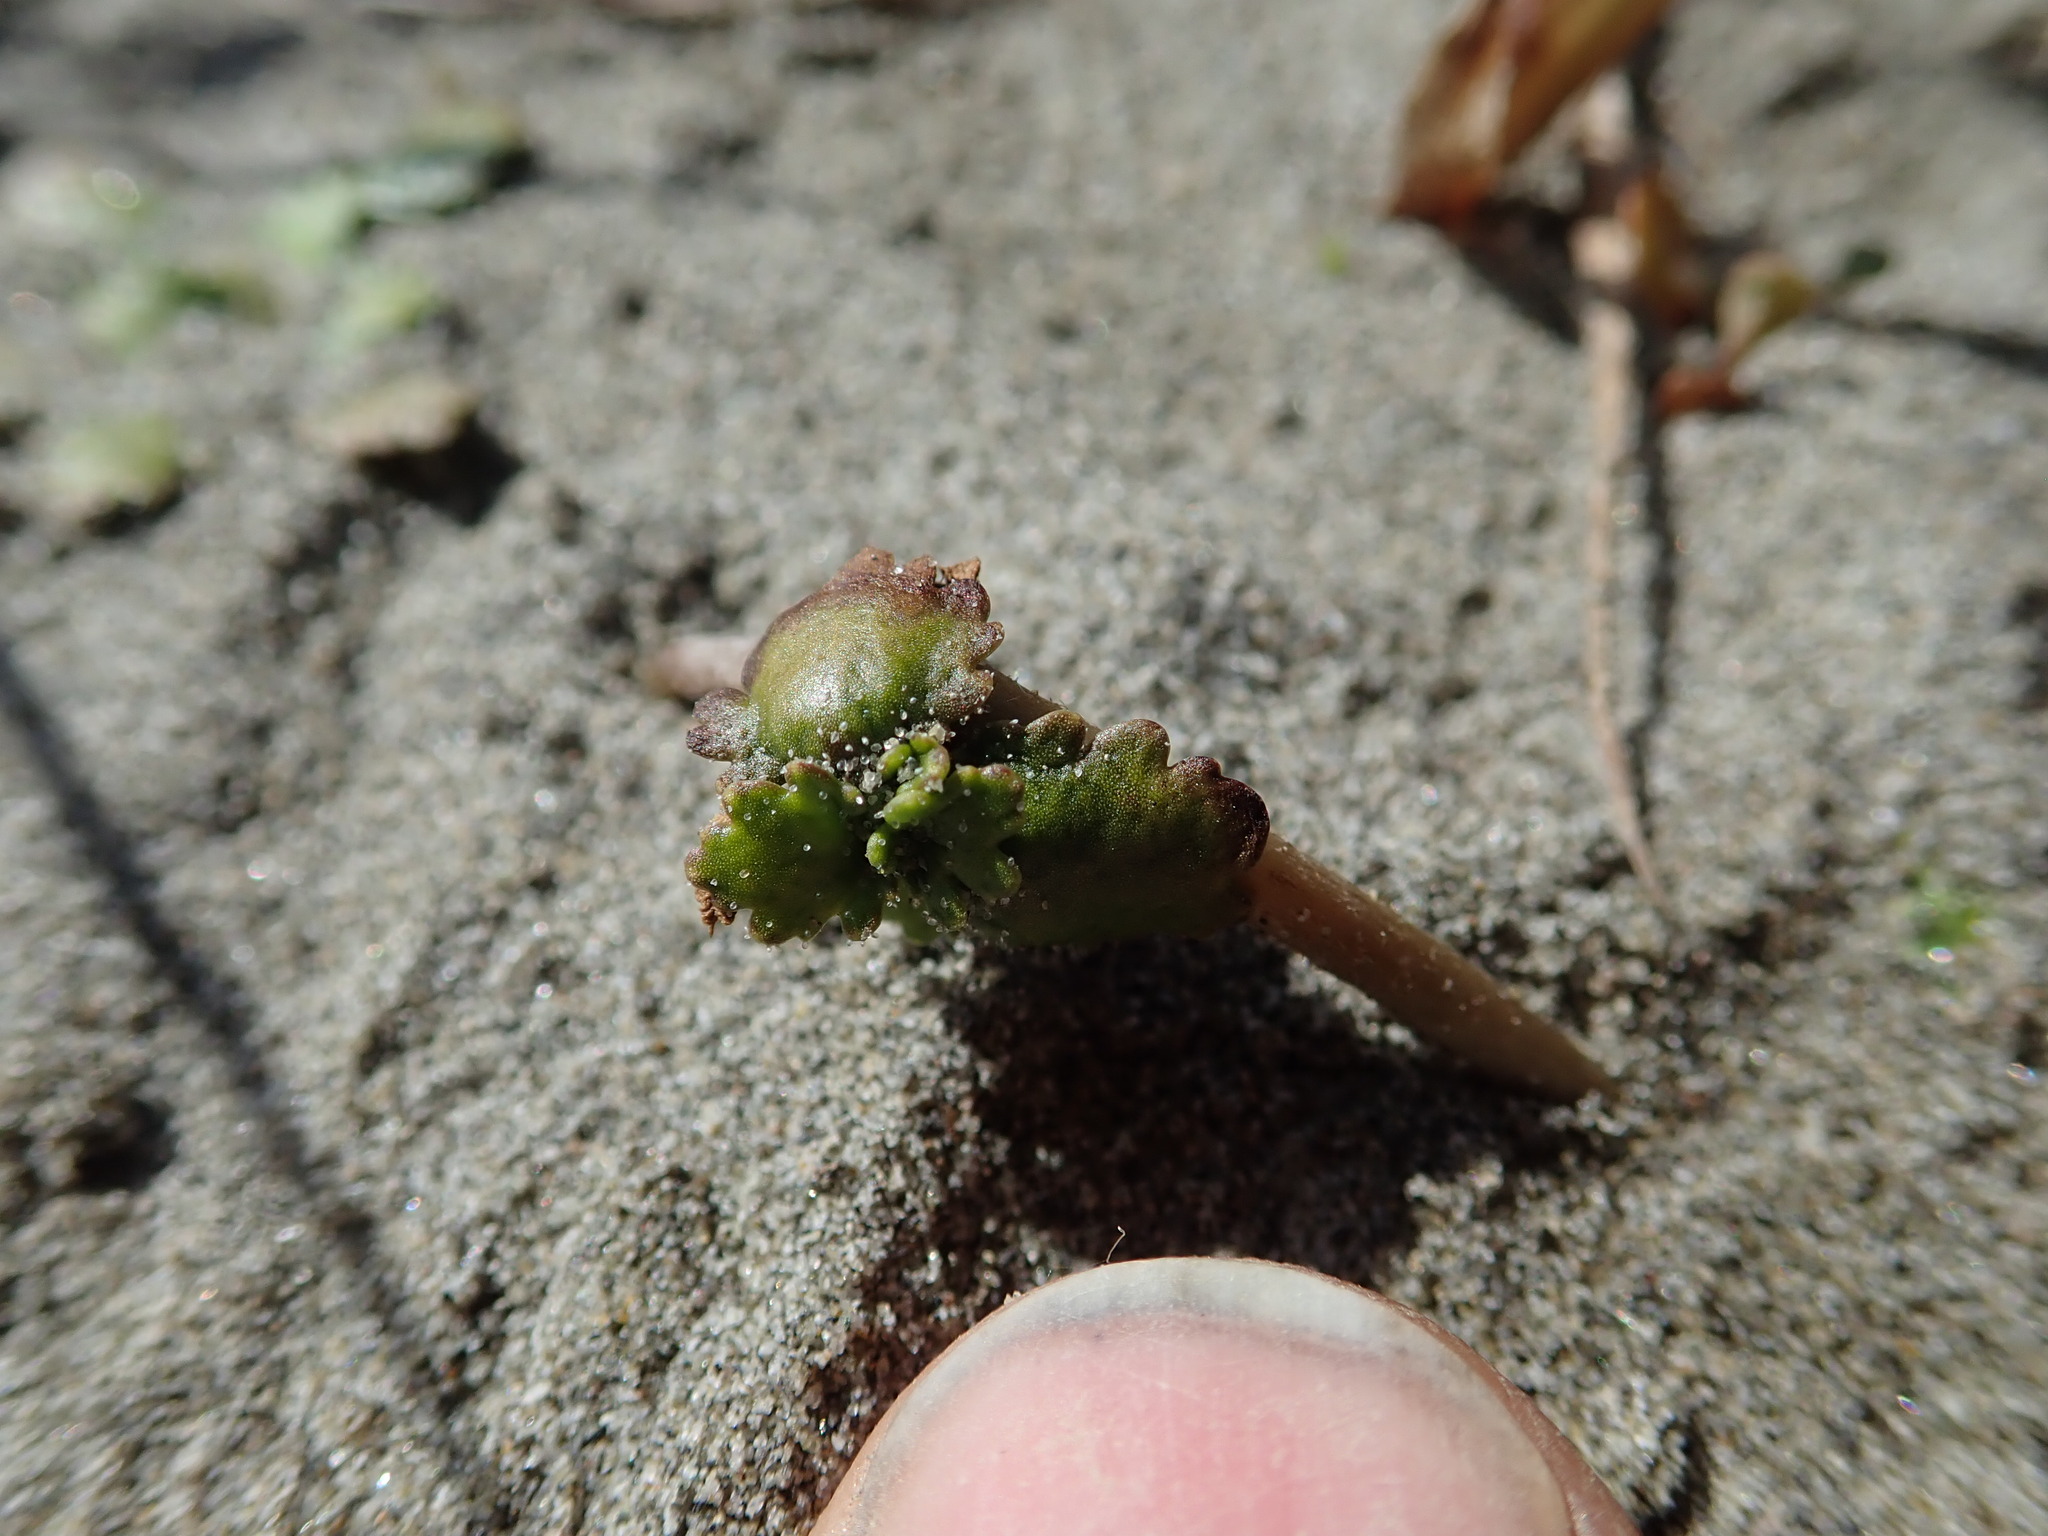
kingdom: Plantae
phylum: Tracheophyta
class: Magnoliopsida
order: Gunnerales
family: Gunneraceae
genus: Gunnera
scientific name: Gunnera dentata
